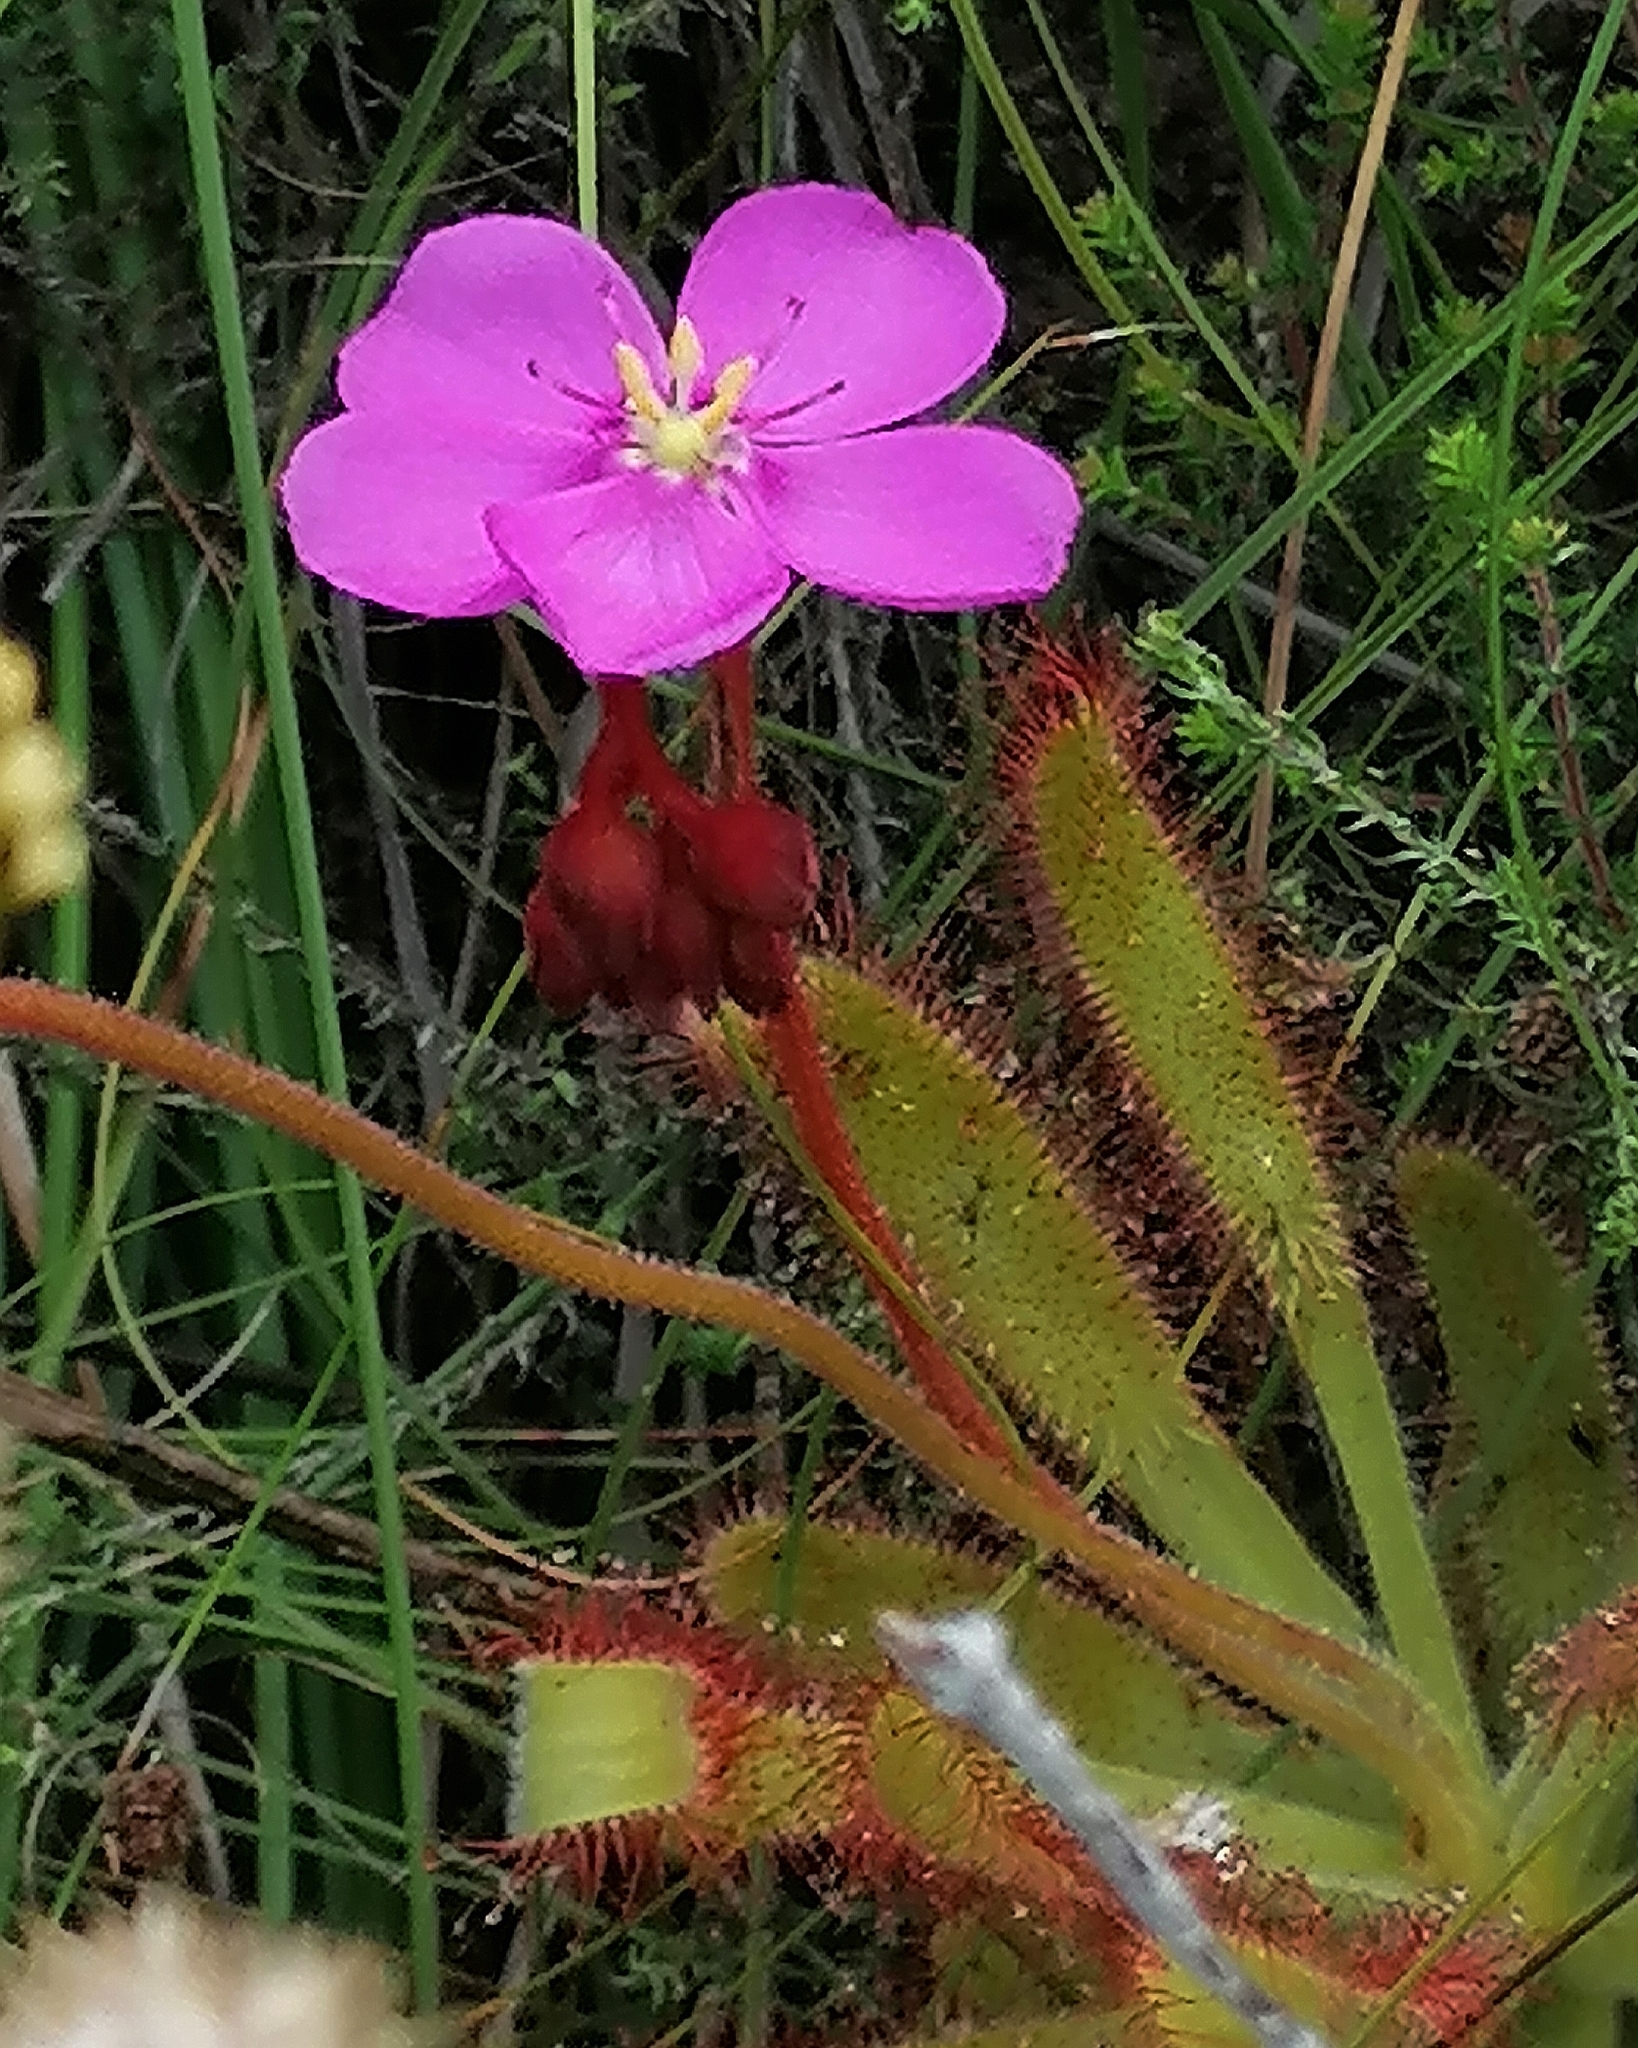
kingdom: Plantae
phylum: Tracheophyta
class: Magnoliopsida
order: Caryophyllales
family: Droseraceae
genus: Drosera
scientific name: Drosera hilaris
